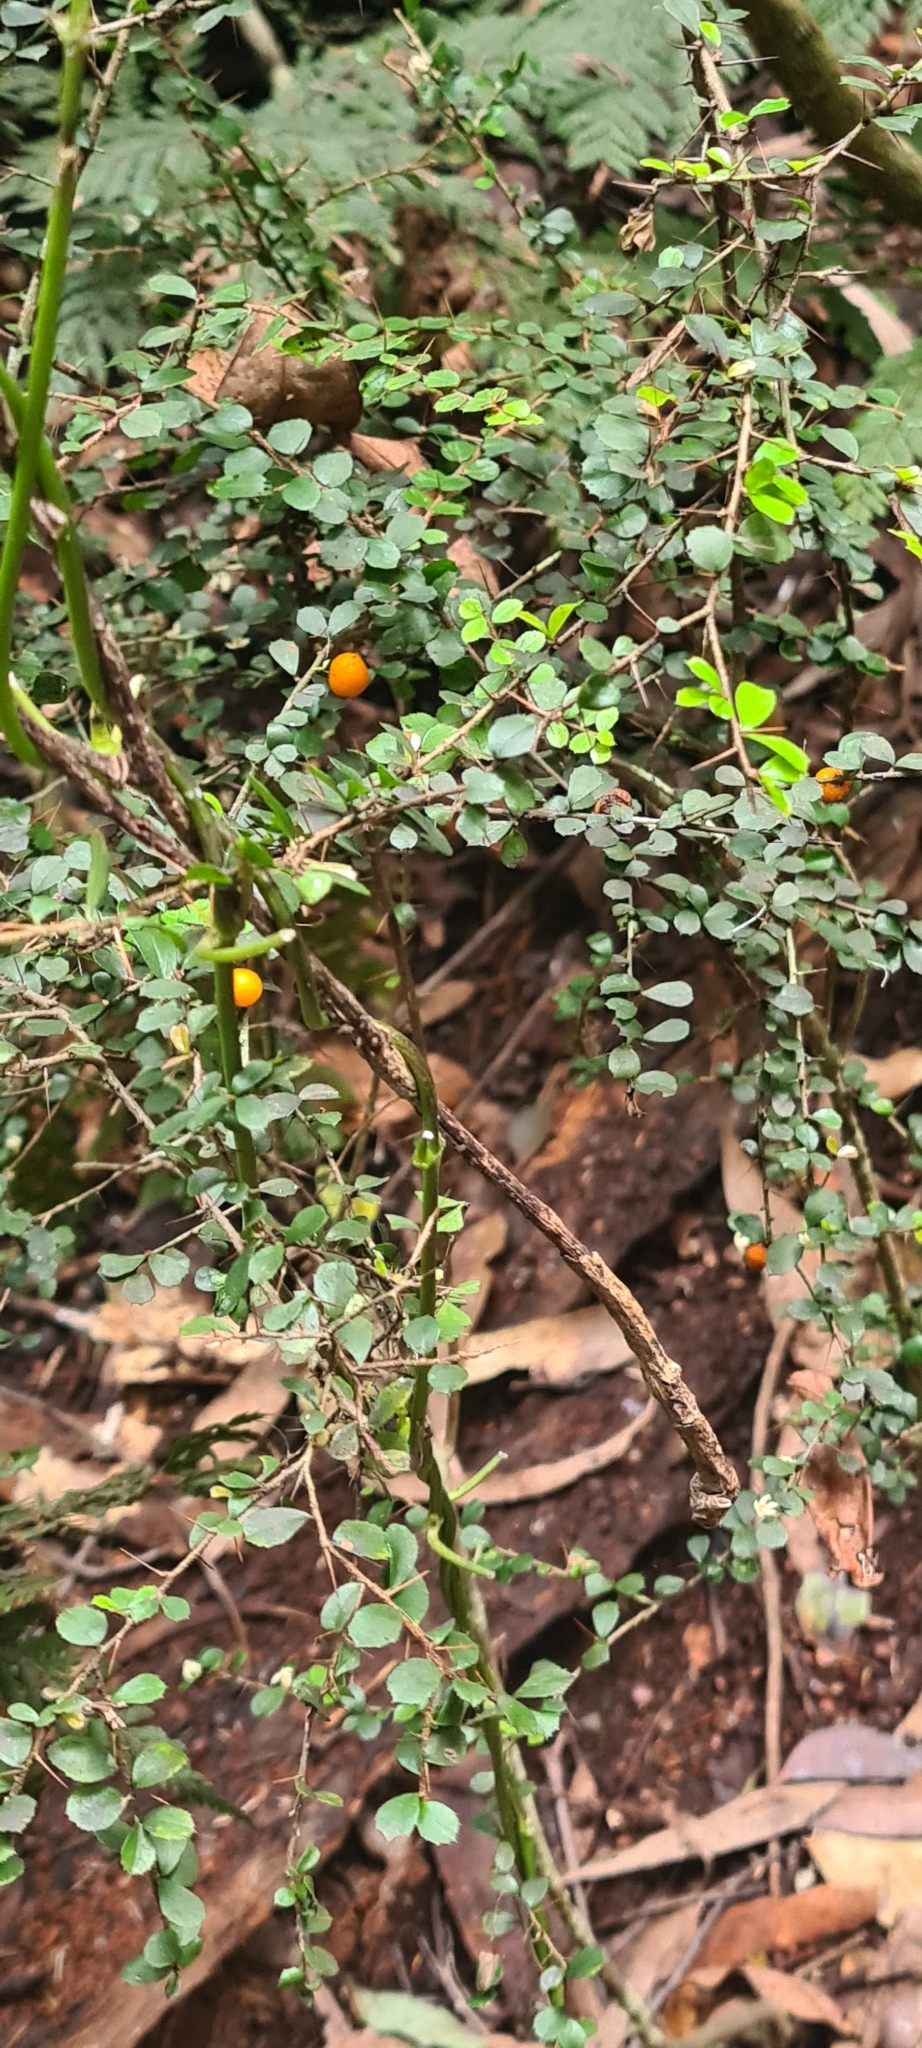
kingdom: Plantae
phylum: Tracheophyta
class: Magnoliopsida
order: Apiales
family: Pittosporaceae
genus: Pittosporum
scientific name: Pittosporum multiflorum
